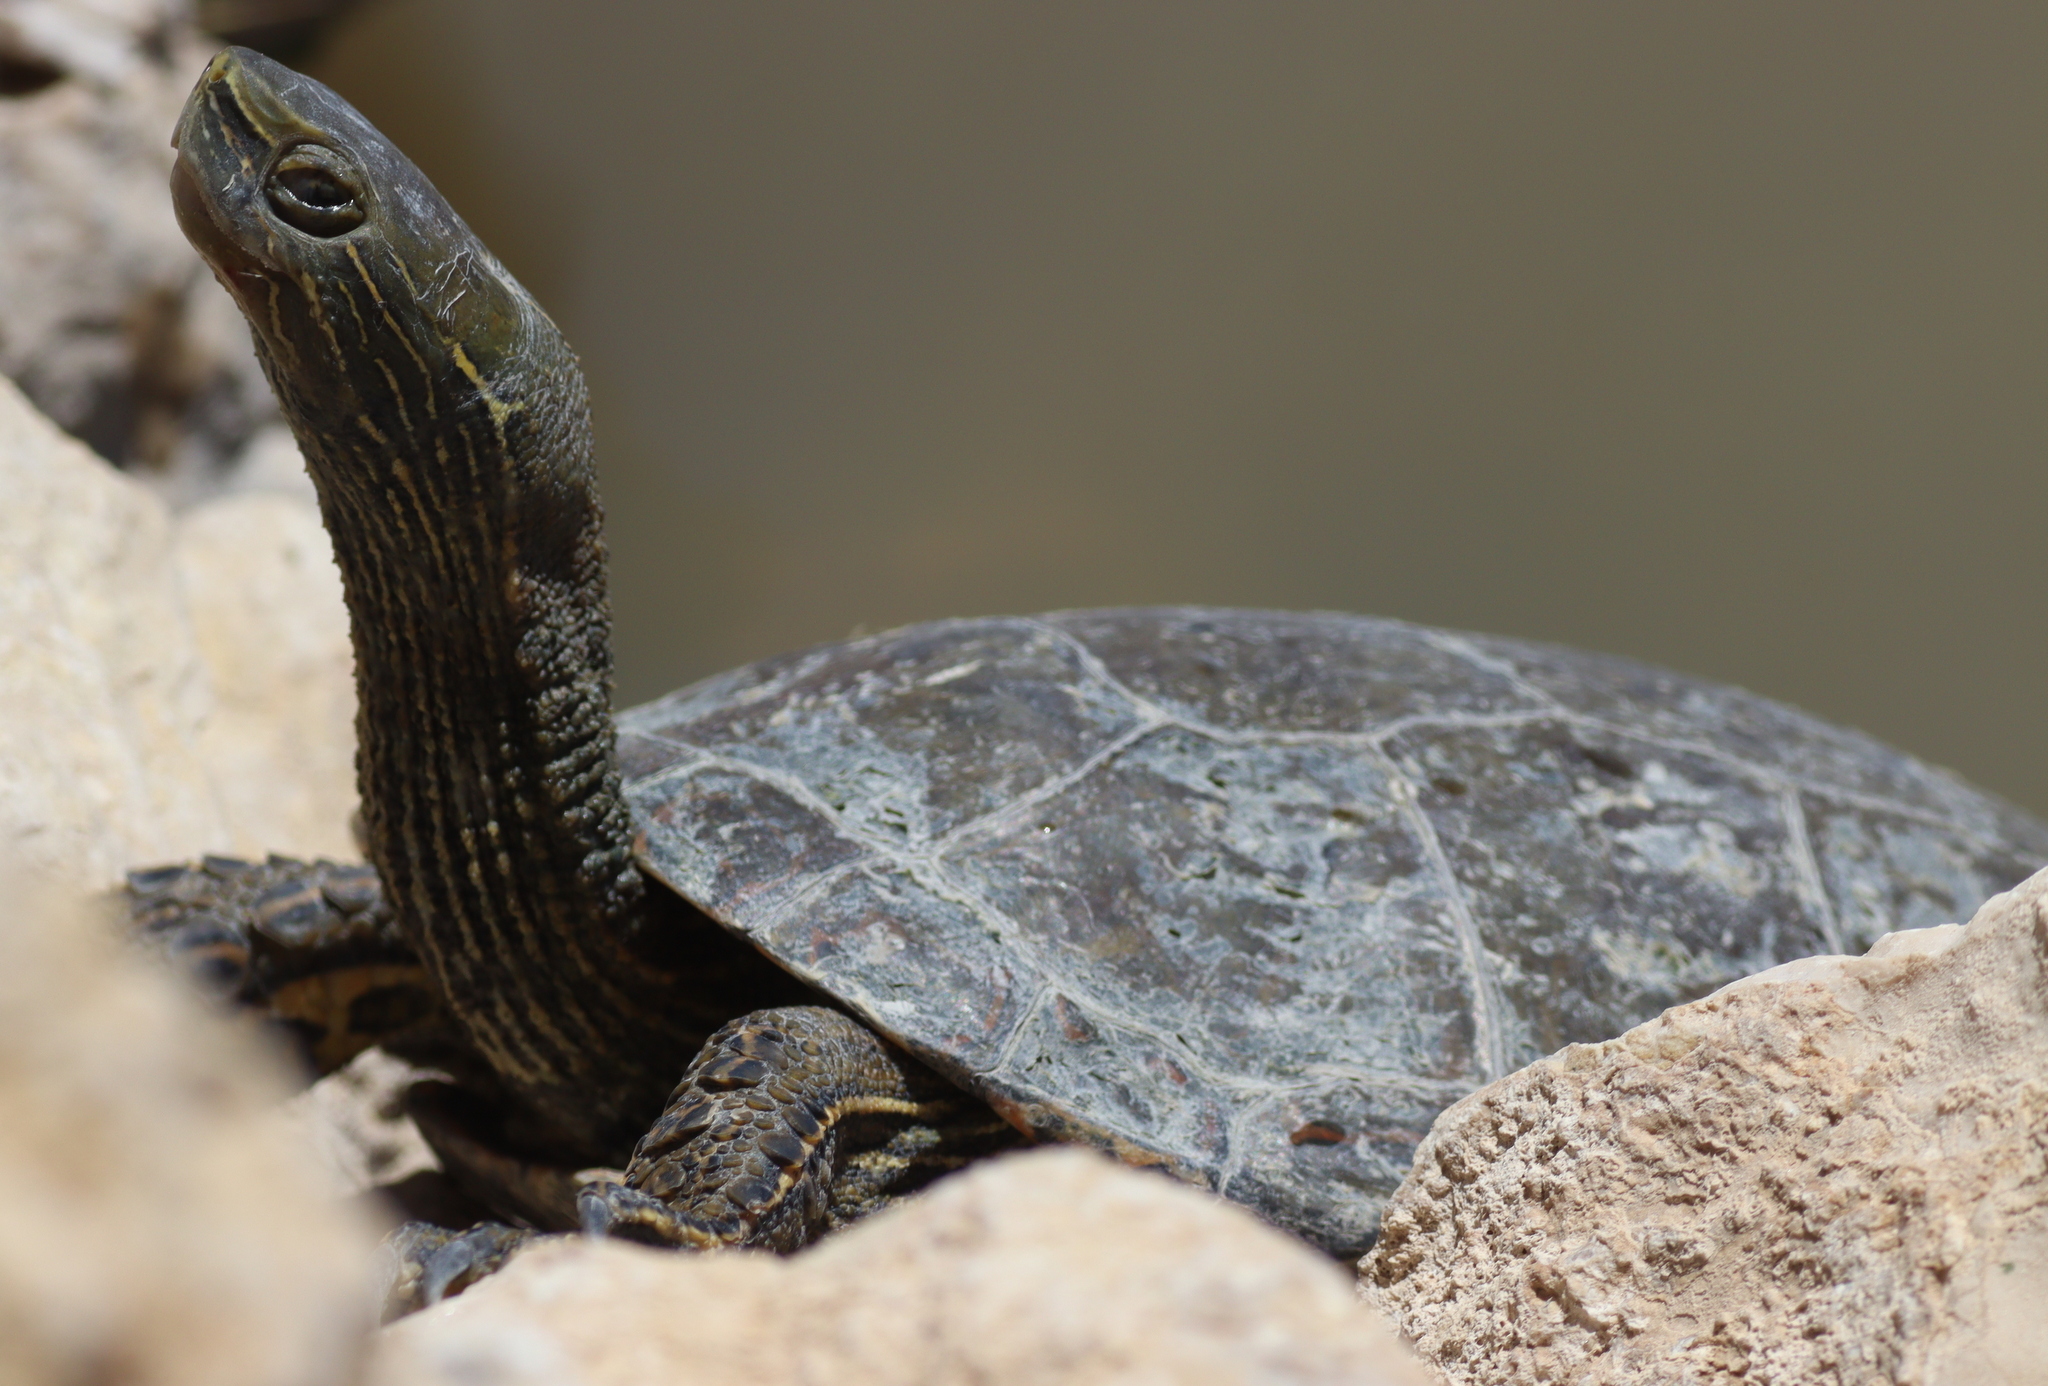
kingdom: Animalia
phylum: Chordata
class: Testudines
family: Geoemydidae
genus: Mauremys
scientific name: Mauremys caspica
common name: Caspian turtle
